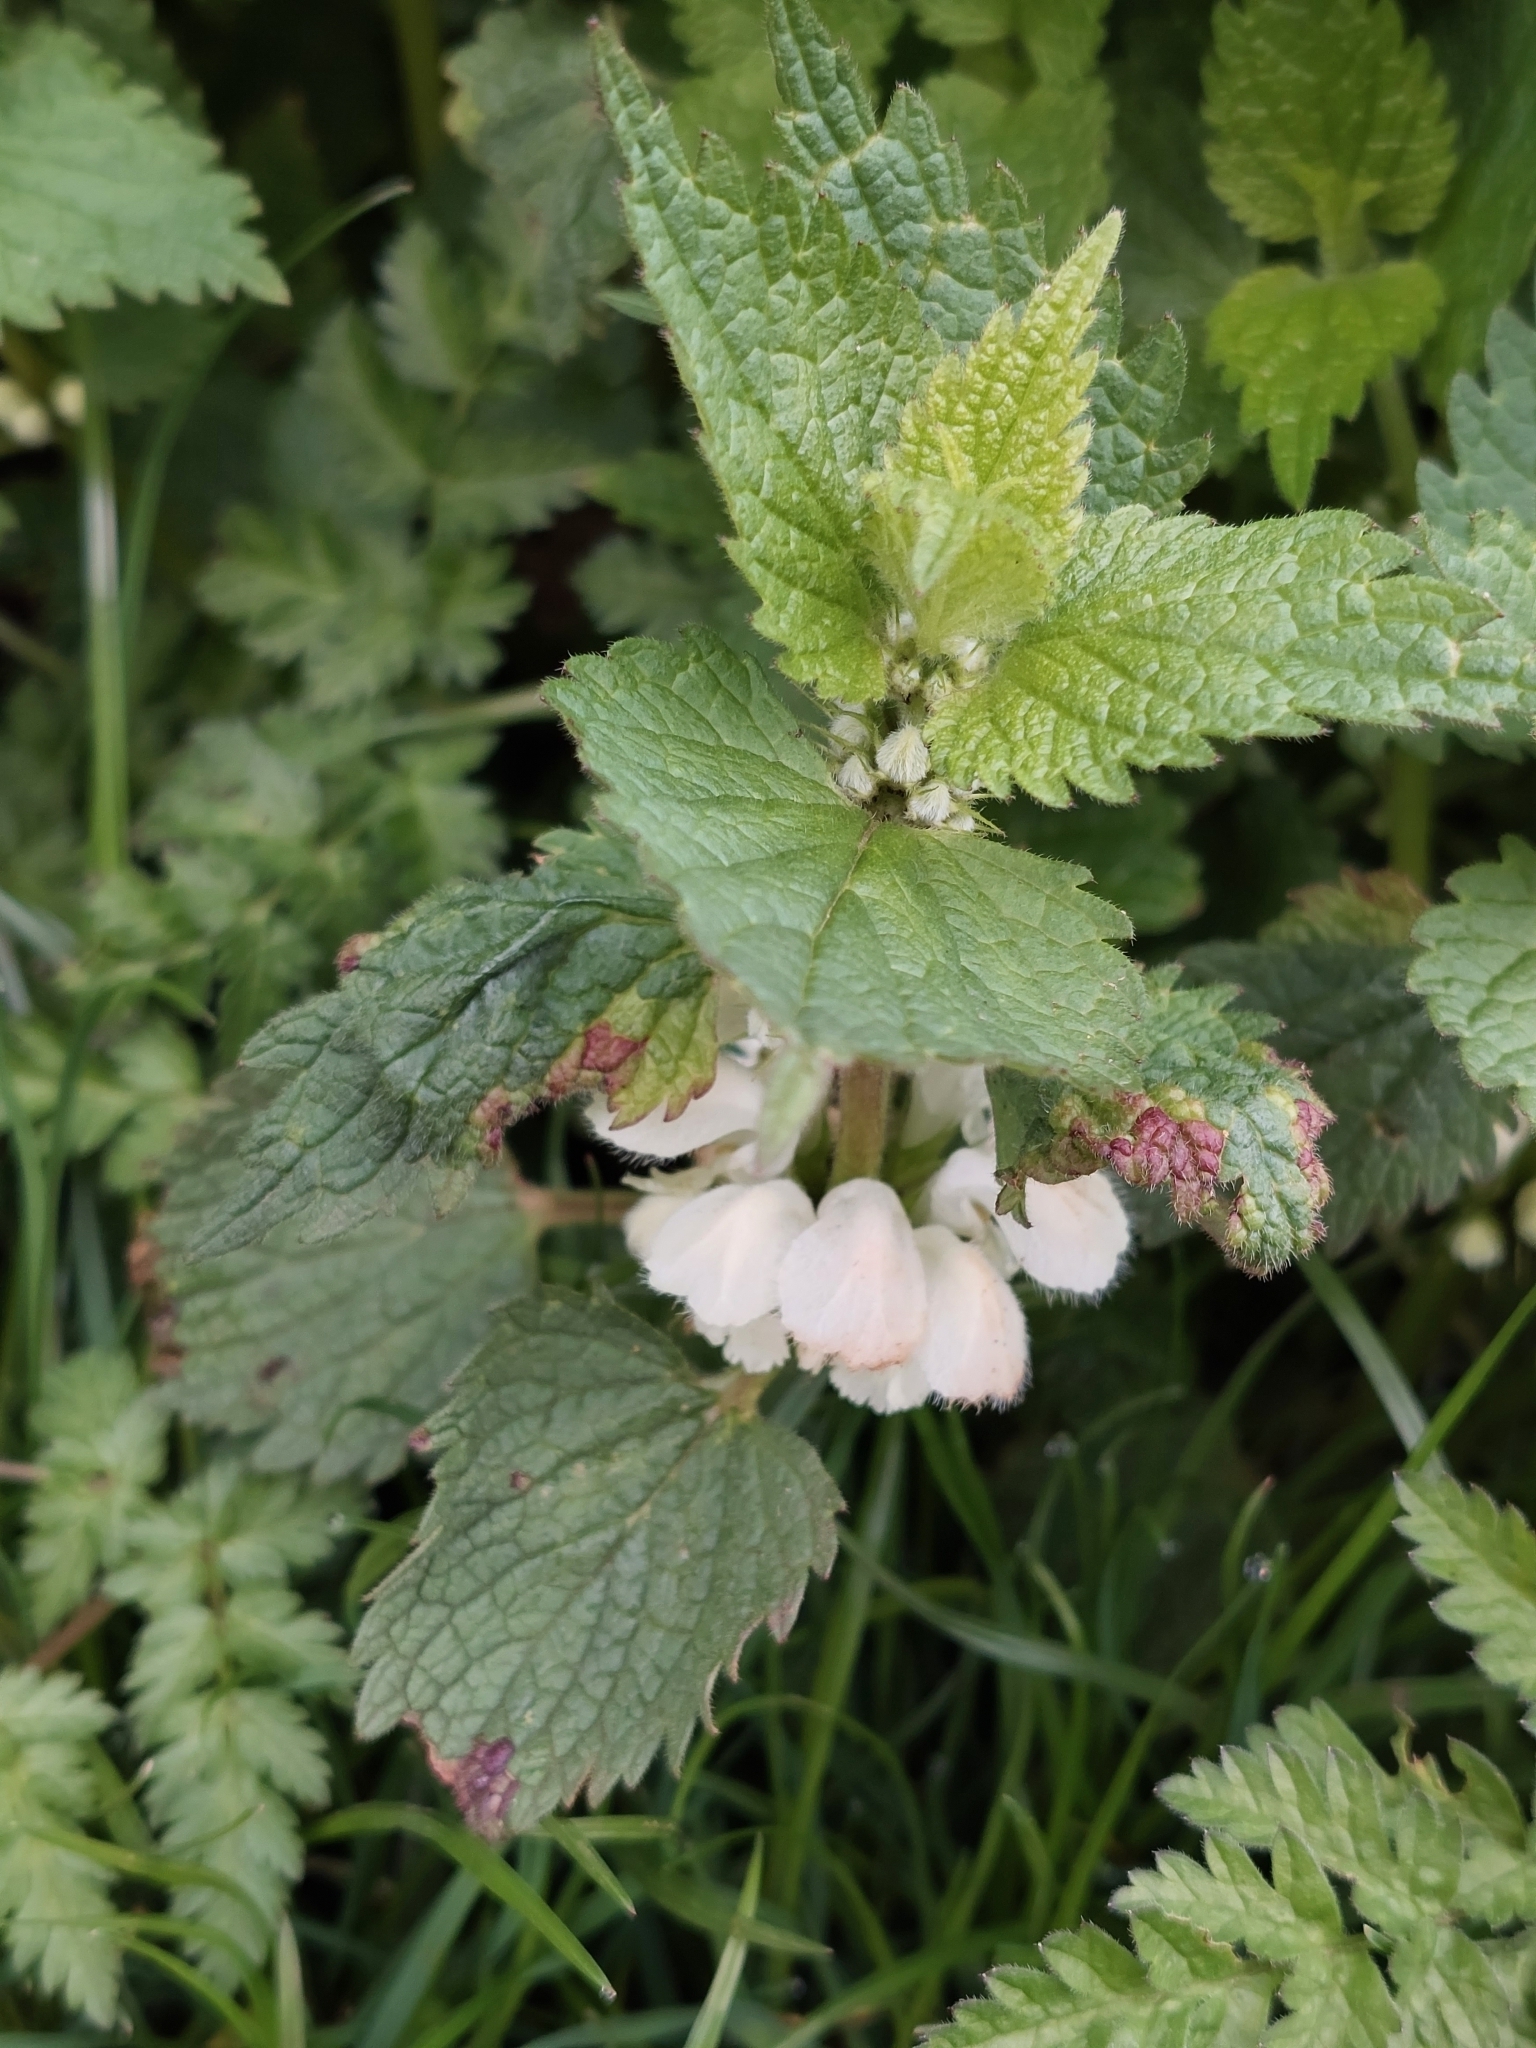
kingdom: Plantae
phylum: Tracheophyta
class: Magnoliopsida
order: Lamiales
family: Lamiaceae
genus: Lamium
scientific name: Lamium album
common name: White dead-nettle
